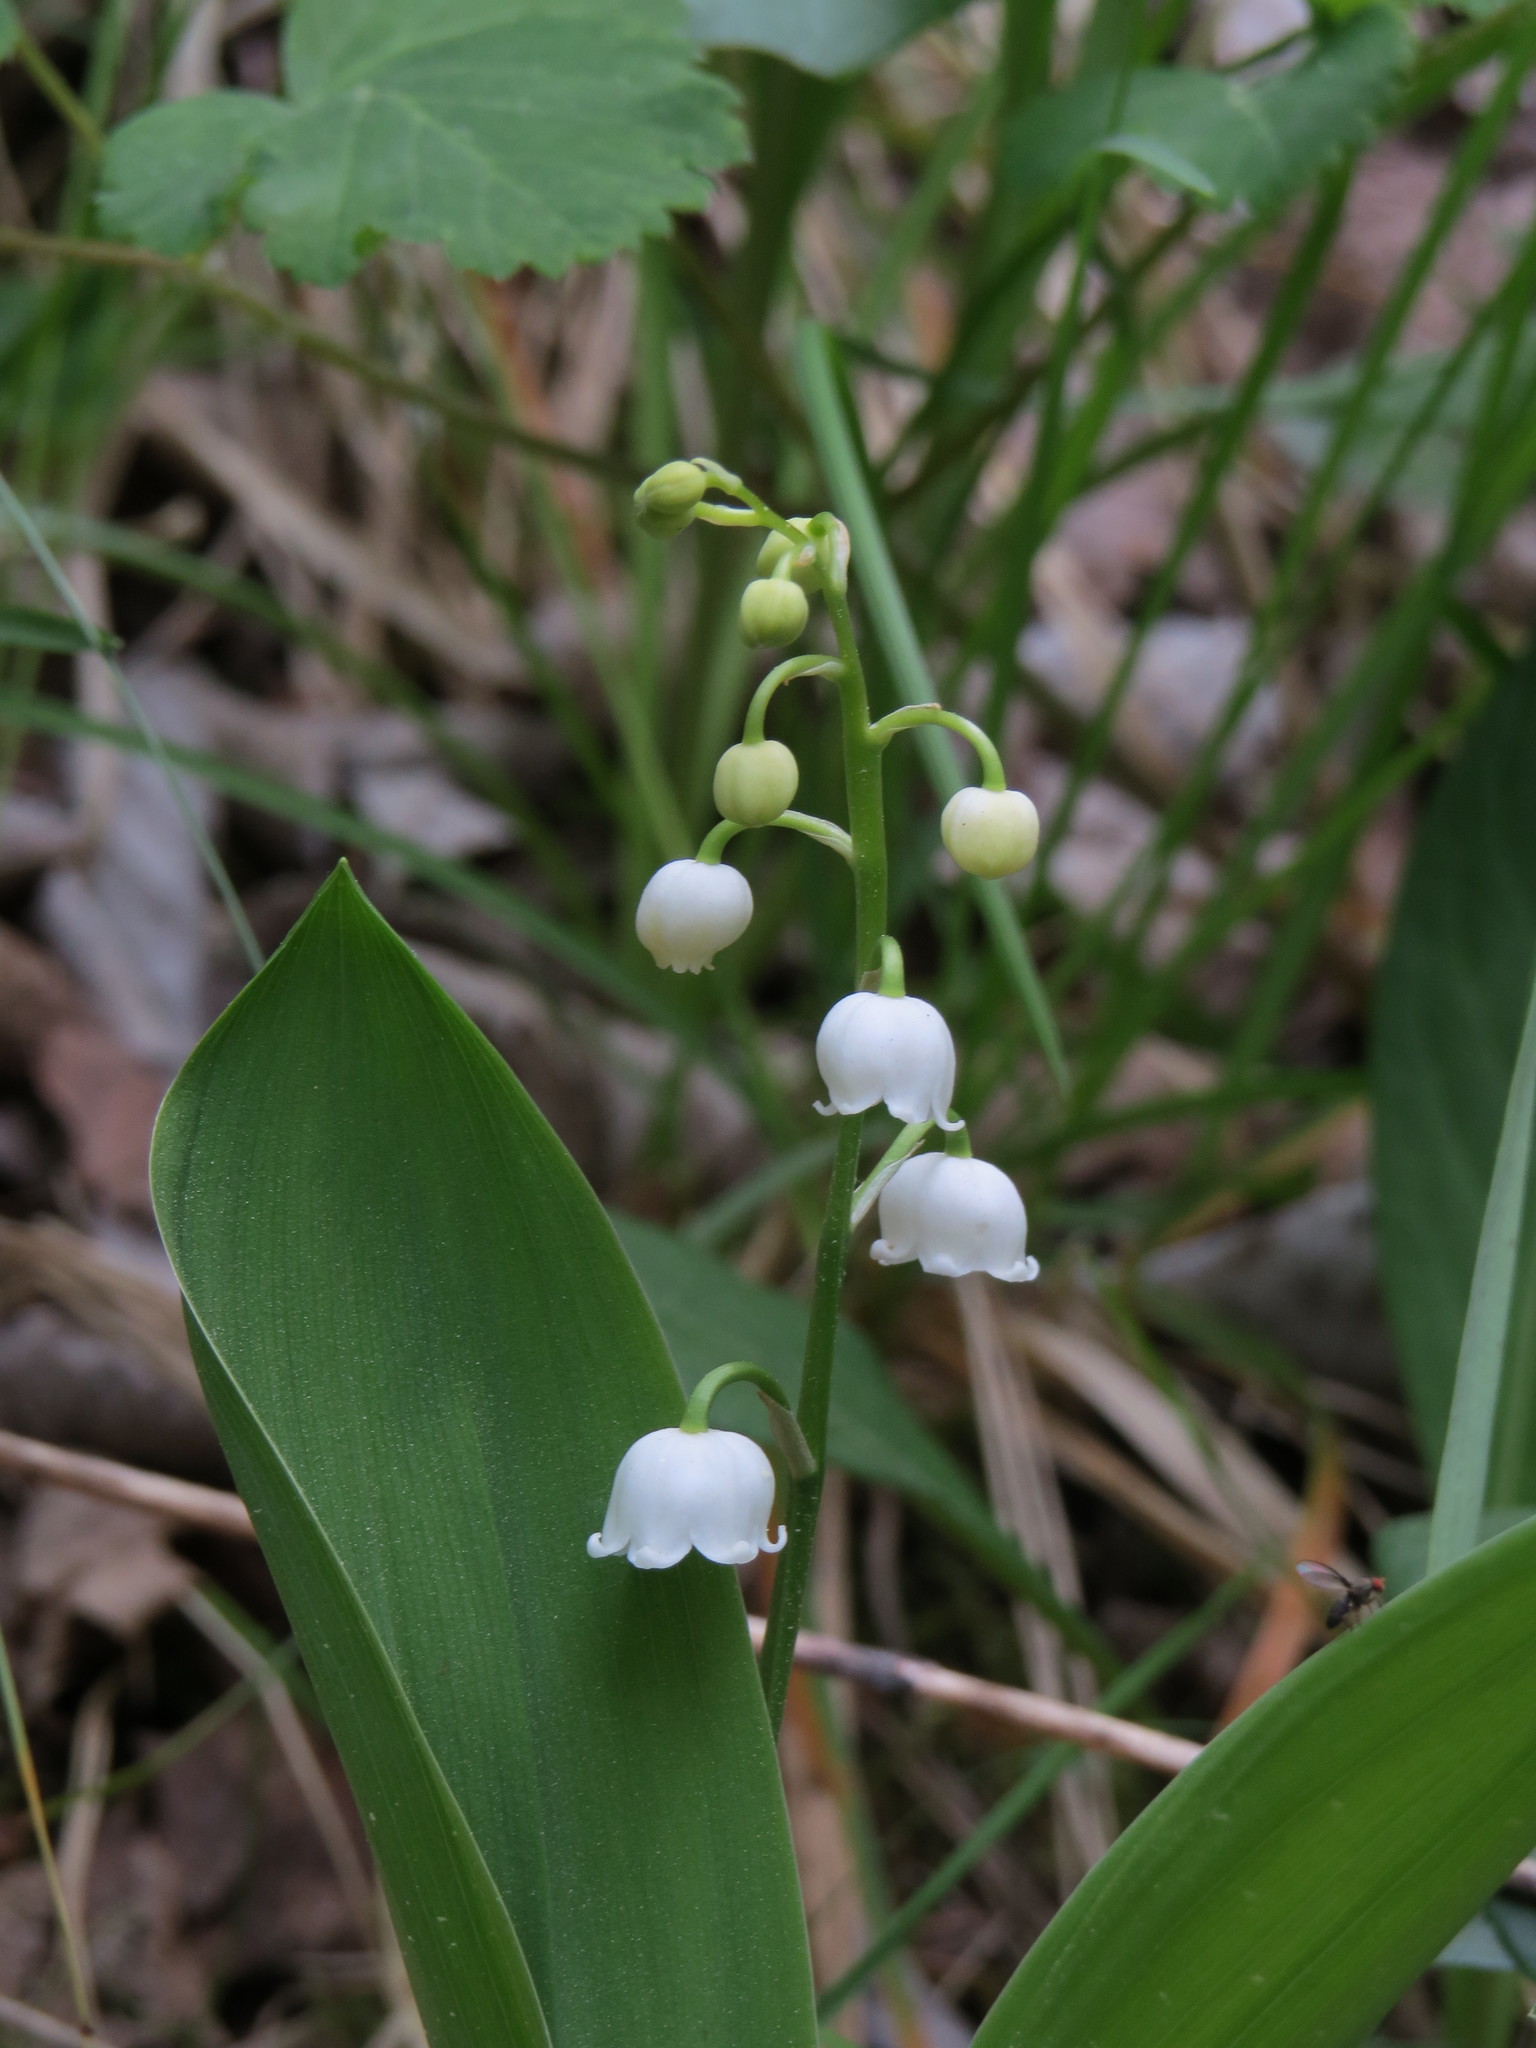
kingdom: Plantae
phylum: Tracheophyta
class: Liliopsida
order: Asparagales
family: Asparagaceae
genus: Convallaria
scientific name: Convallaria majalis
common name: Lily-of-the-valley
